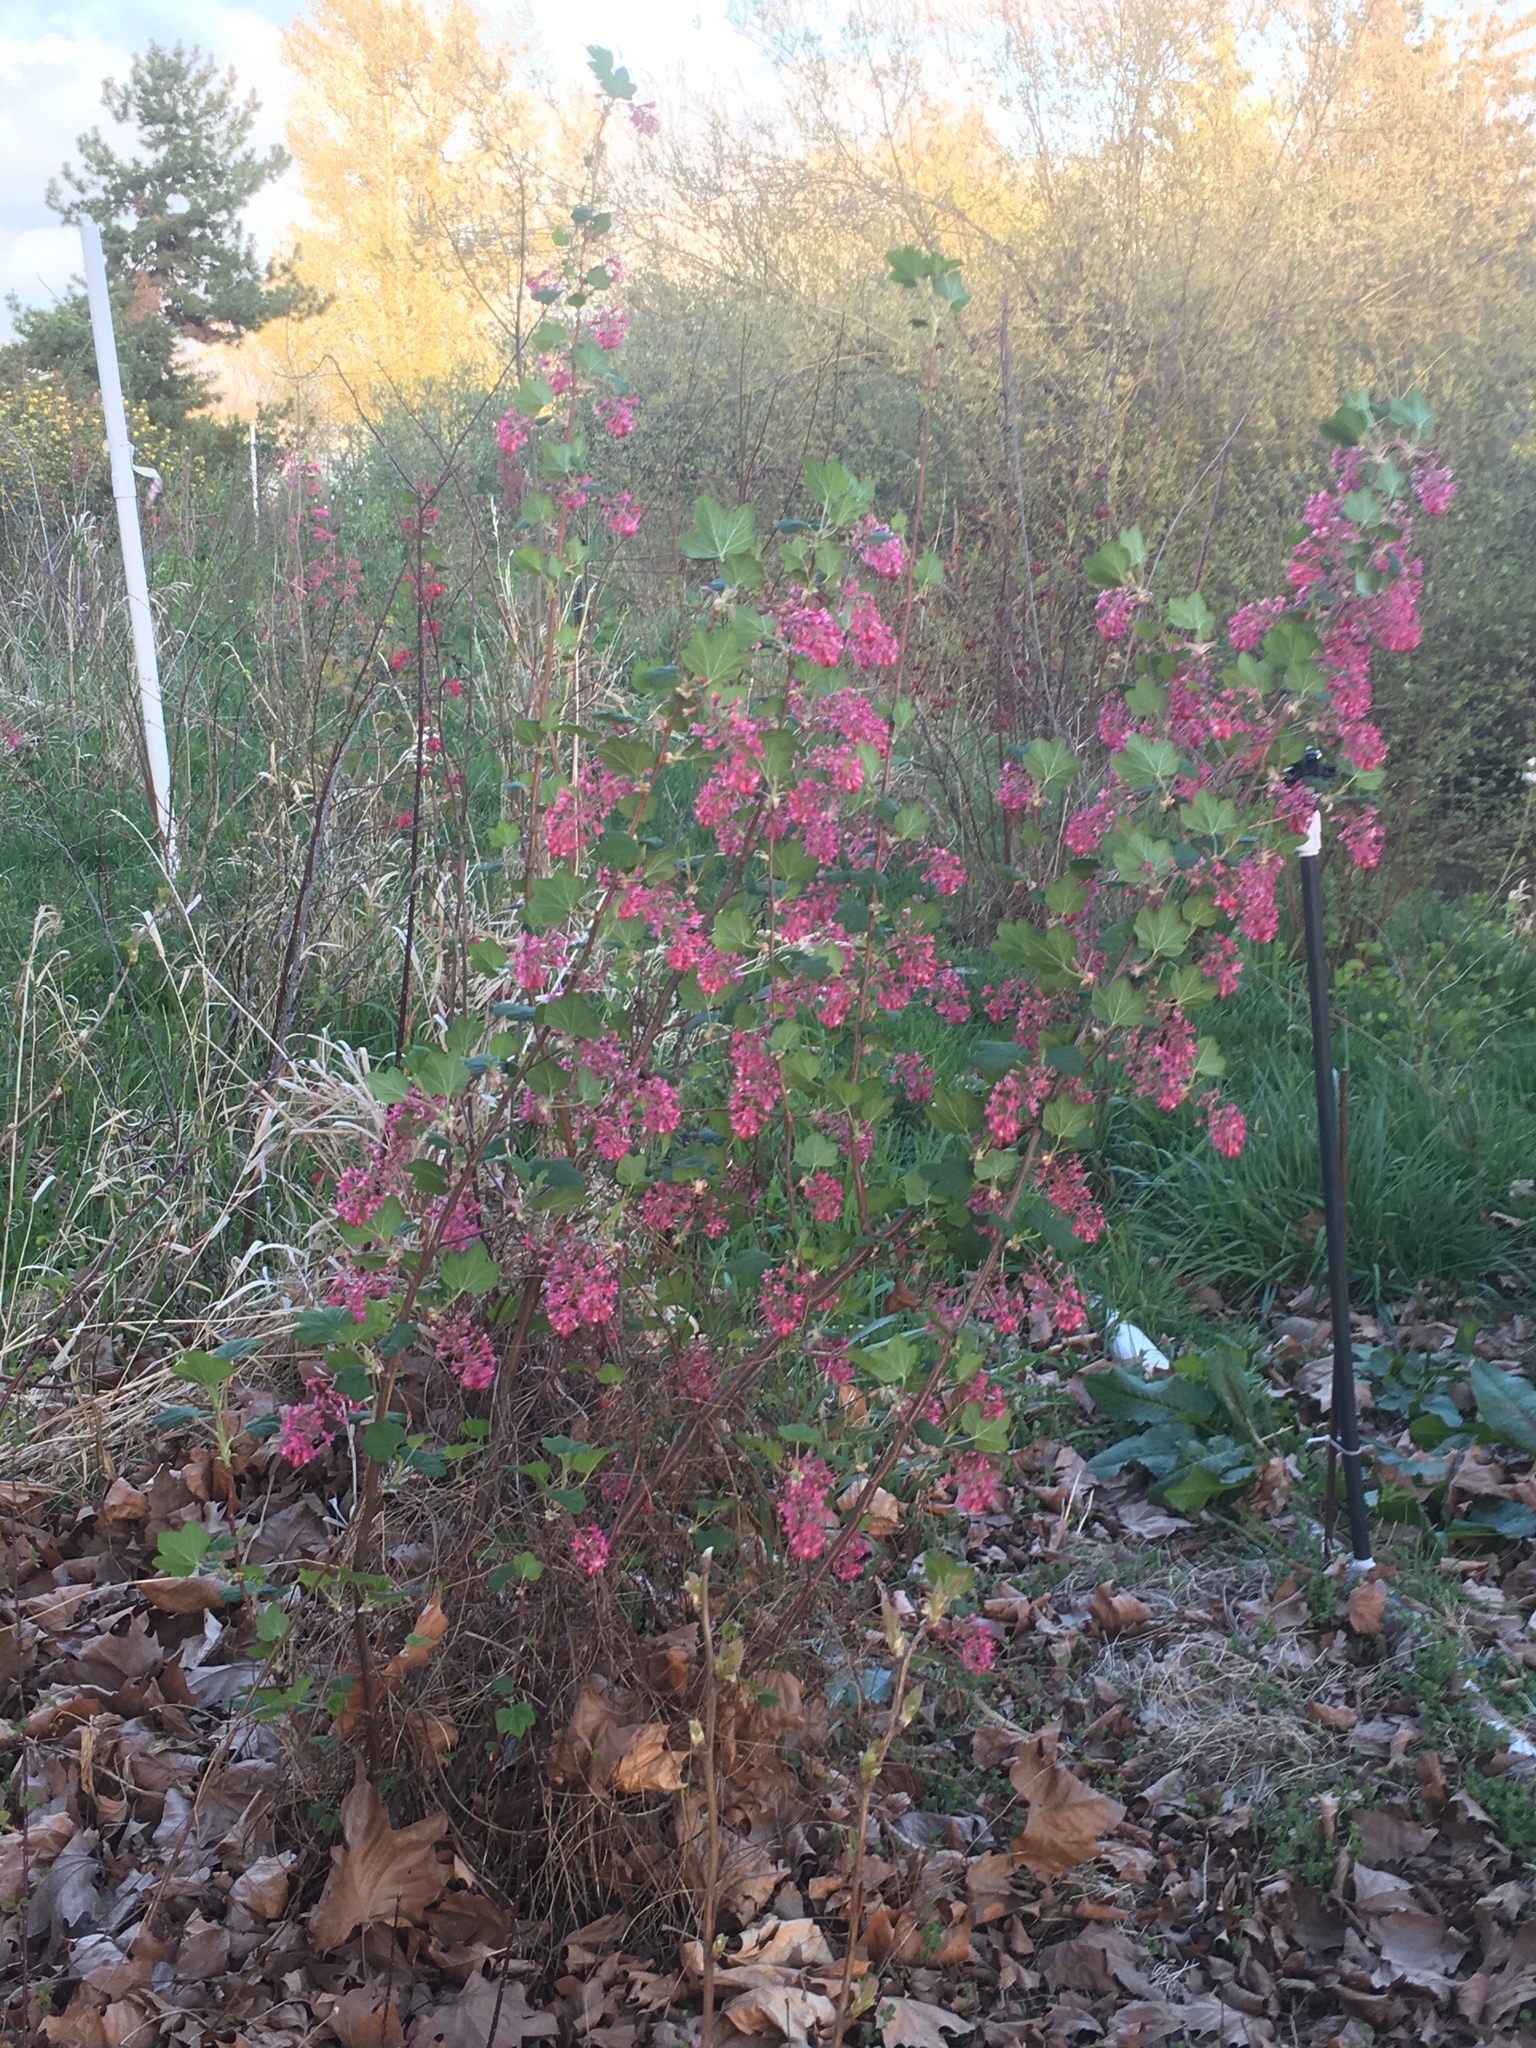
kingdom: Plantae
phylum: Tracheophyta
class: Magnoliopsida
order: Saxifragales
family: Grossulariaceae
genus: Ribes
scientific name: Ribes sanguineum
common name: Flowering currant
